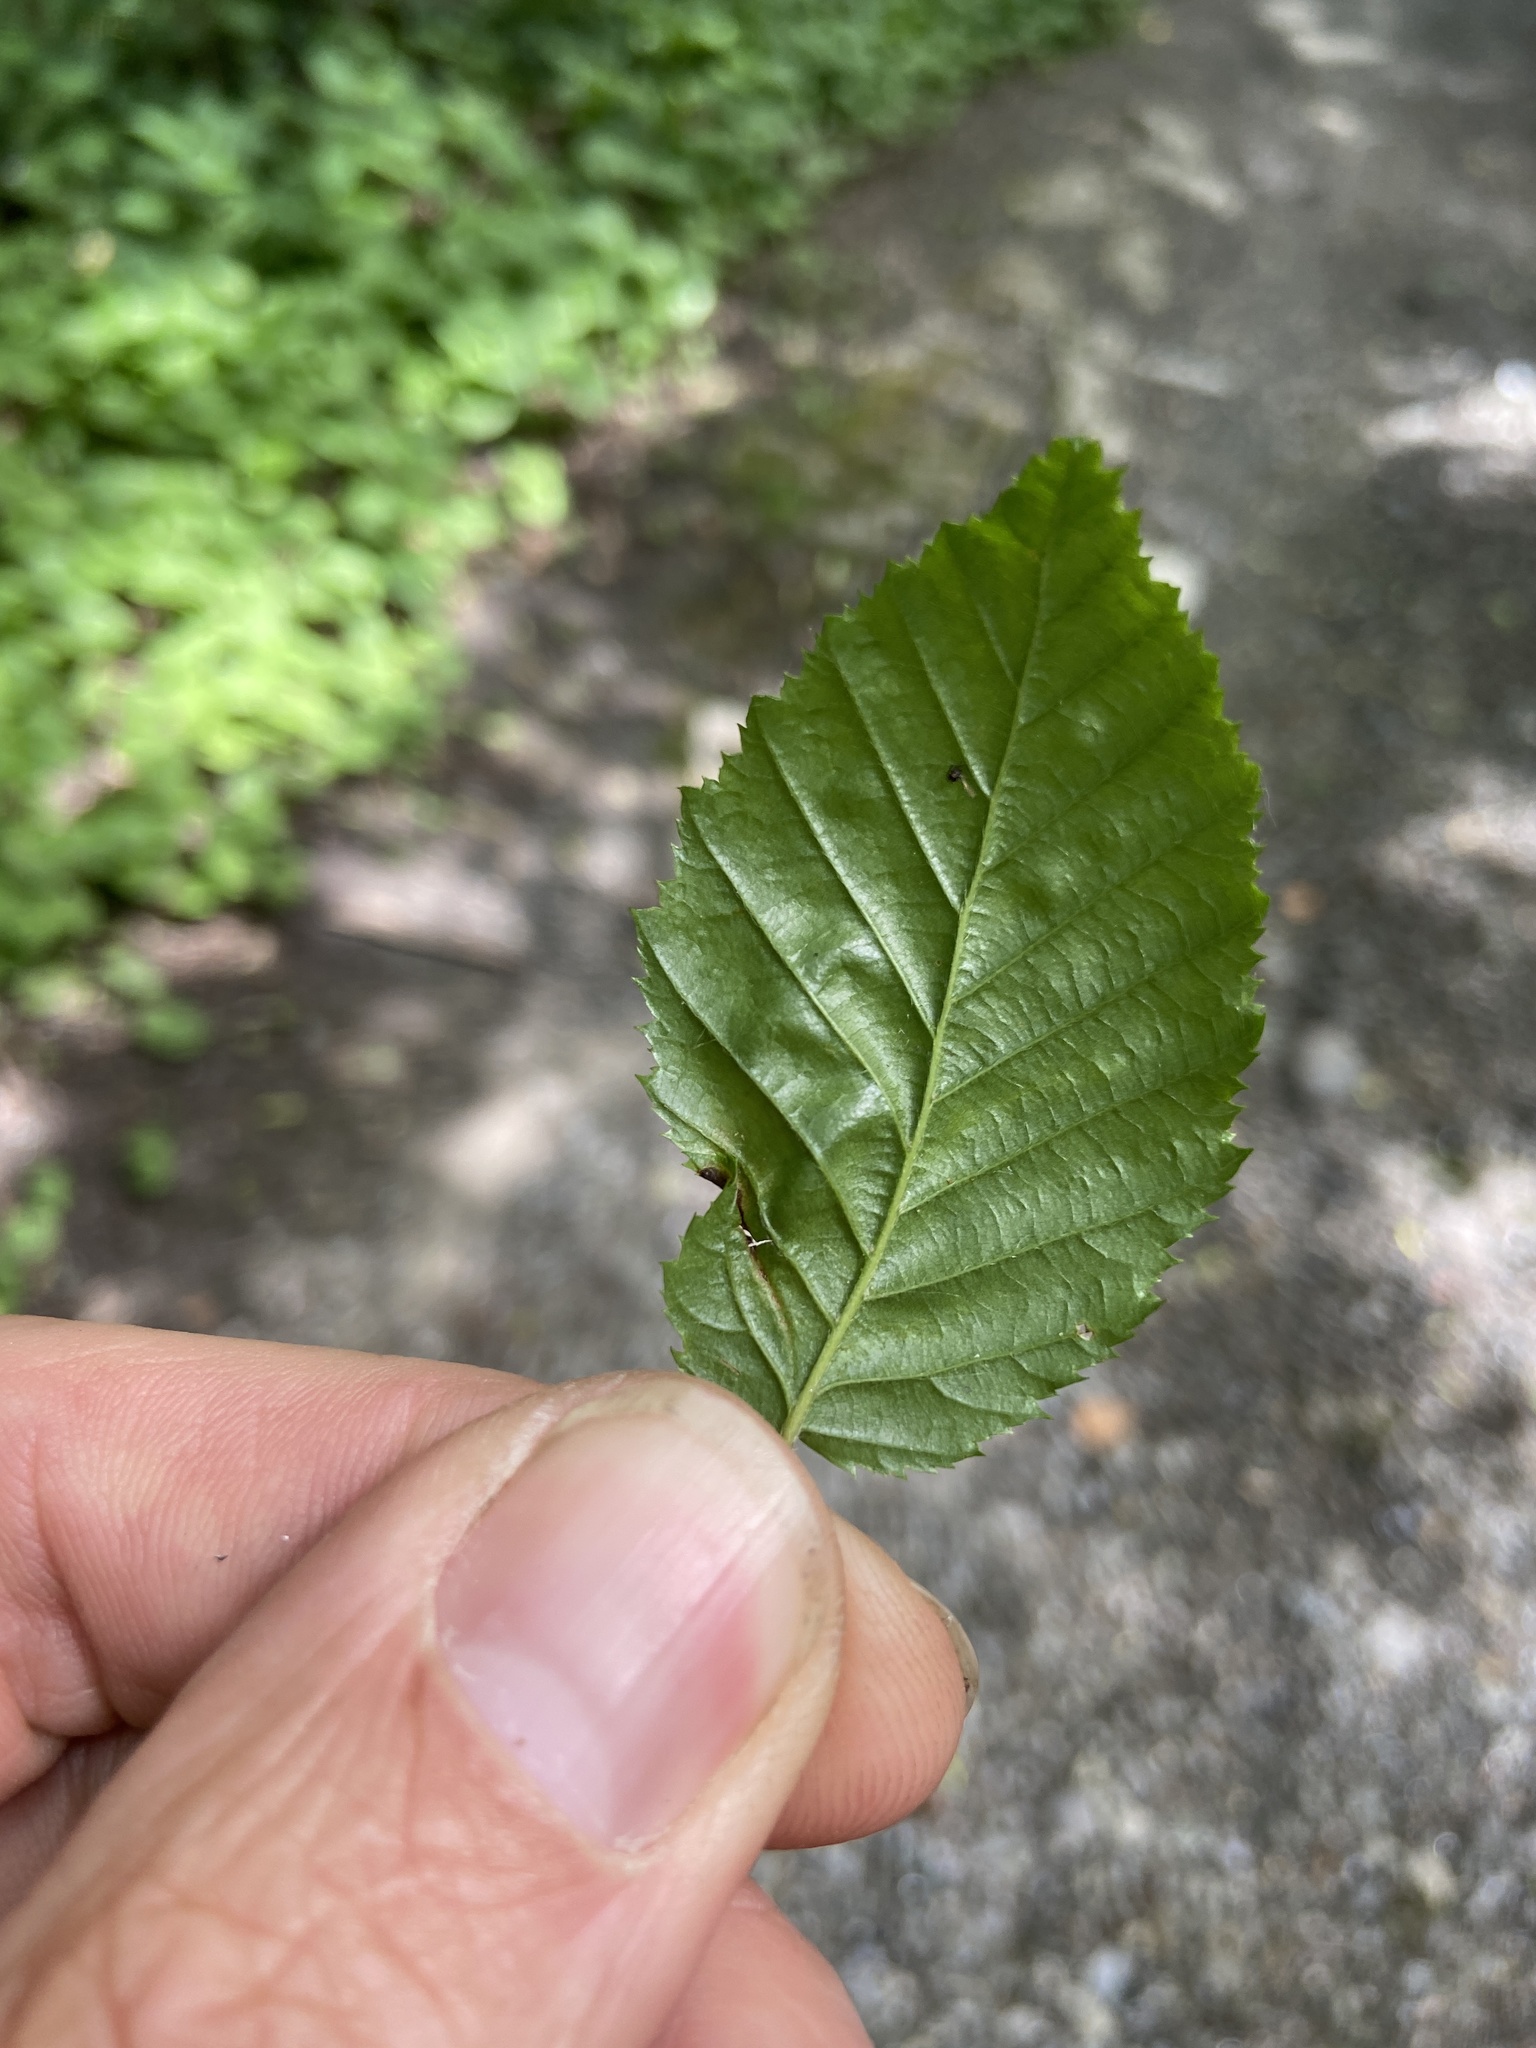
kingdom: Animalia
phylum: Arthropoda
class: Insecta
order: Diptera
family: Cecidomyiidae
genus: Contarinia
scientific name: Contarinia carpini
